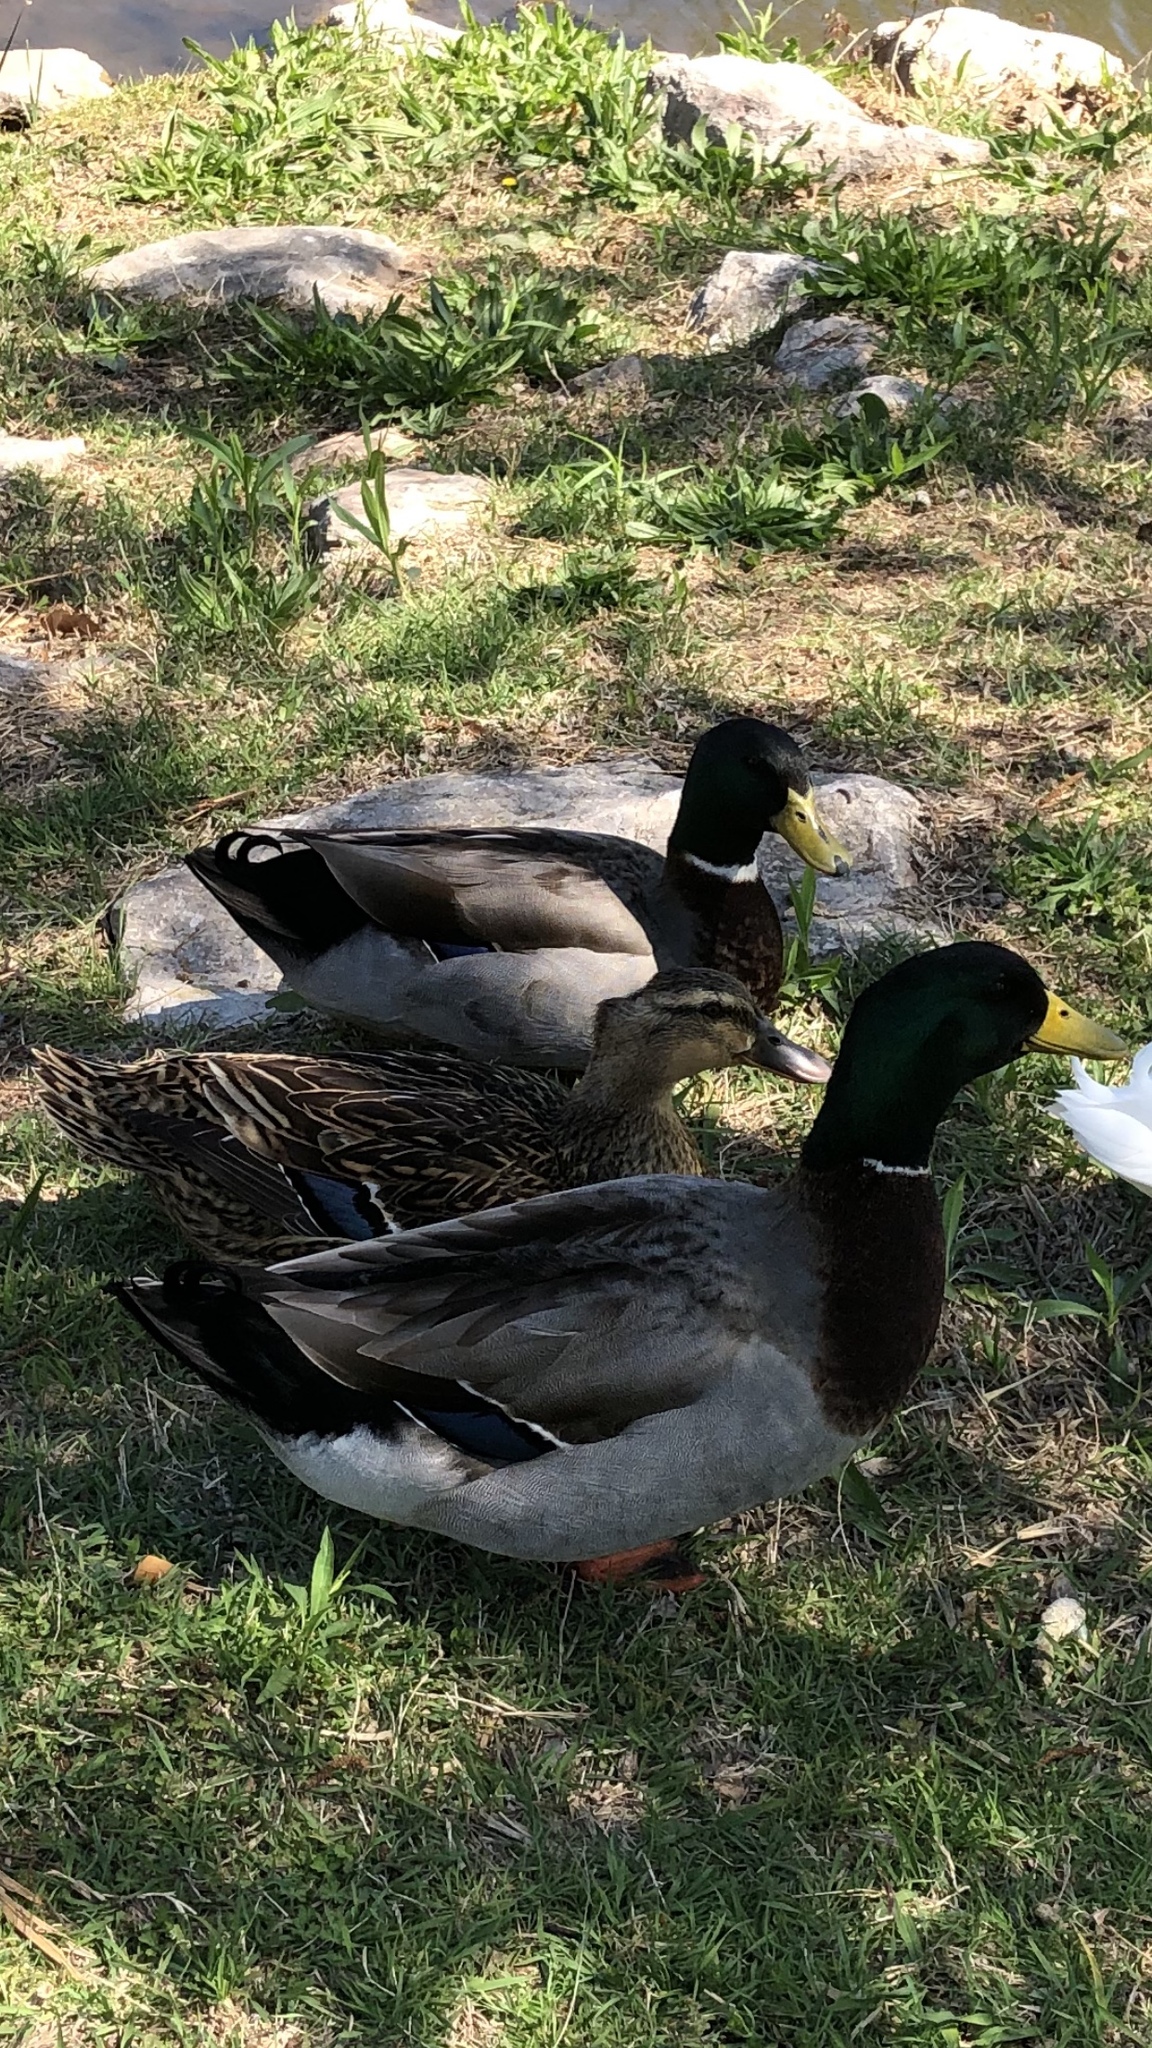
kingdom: Animalia
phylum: Chordata
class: Aves
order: Anseriformes
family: Anatidae
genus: Anas
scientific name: Anas platyrhynchos
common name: Mallard
